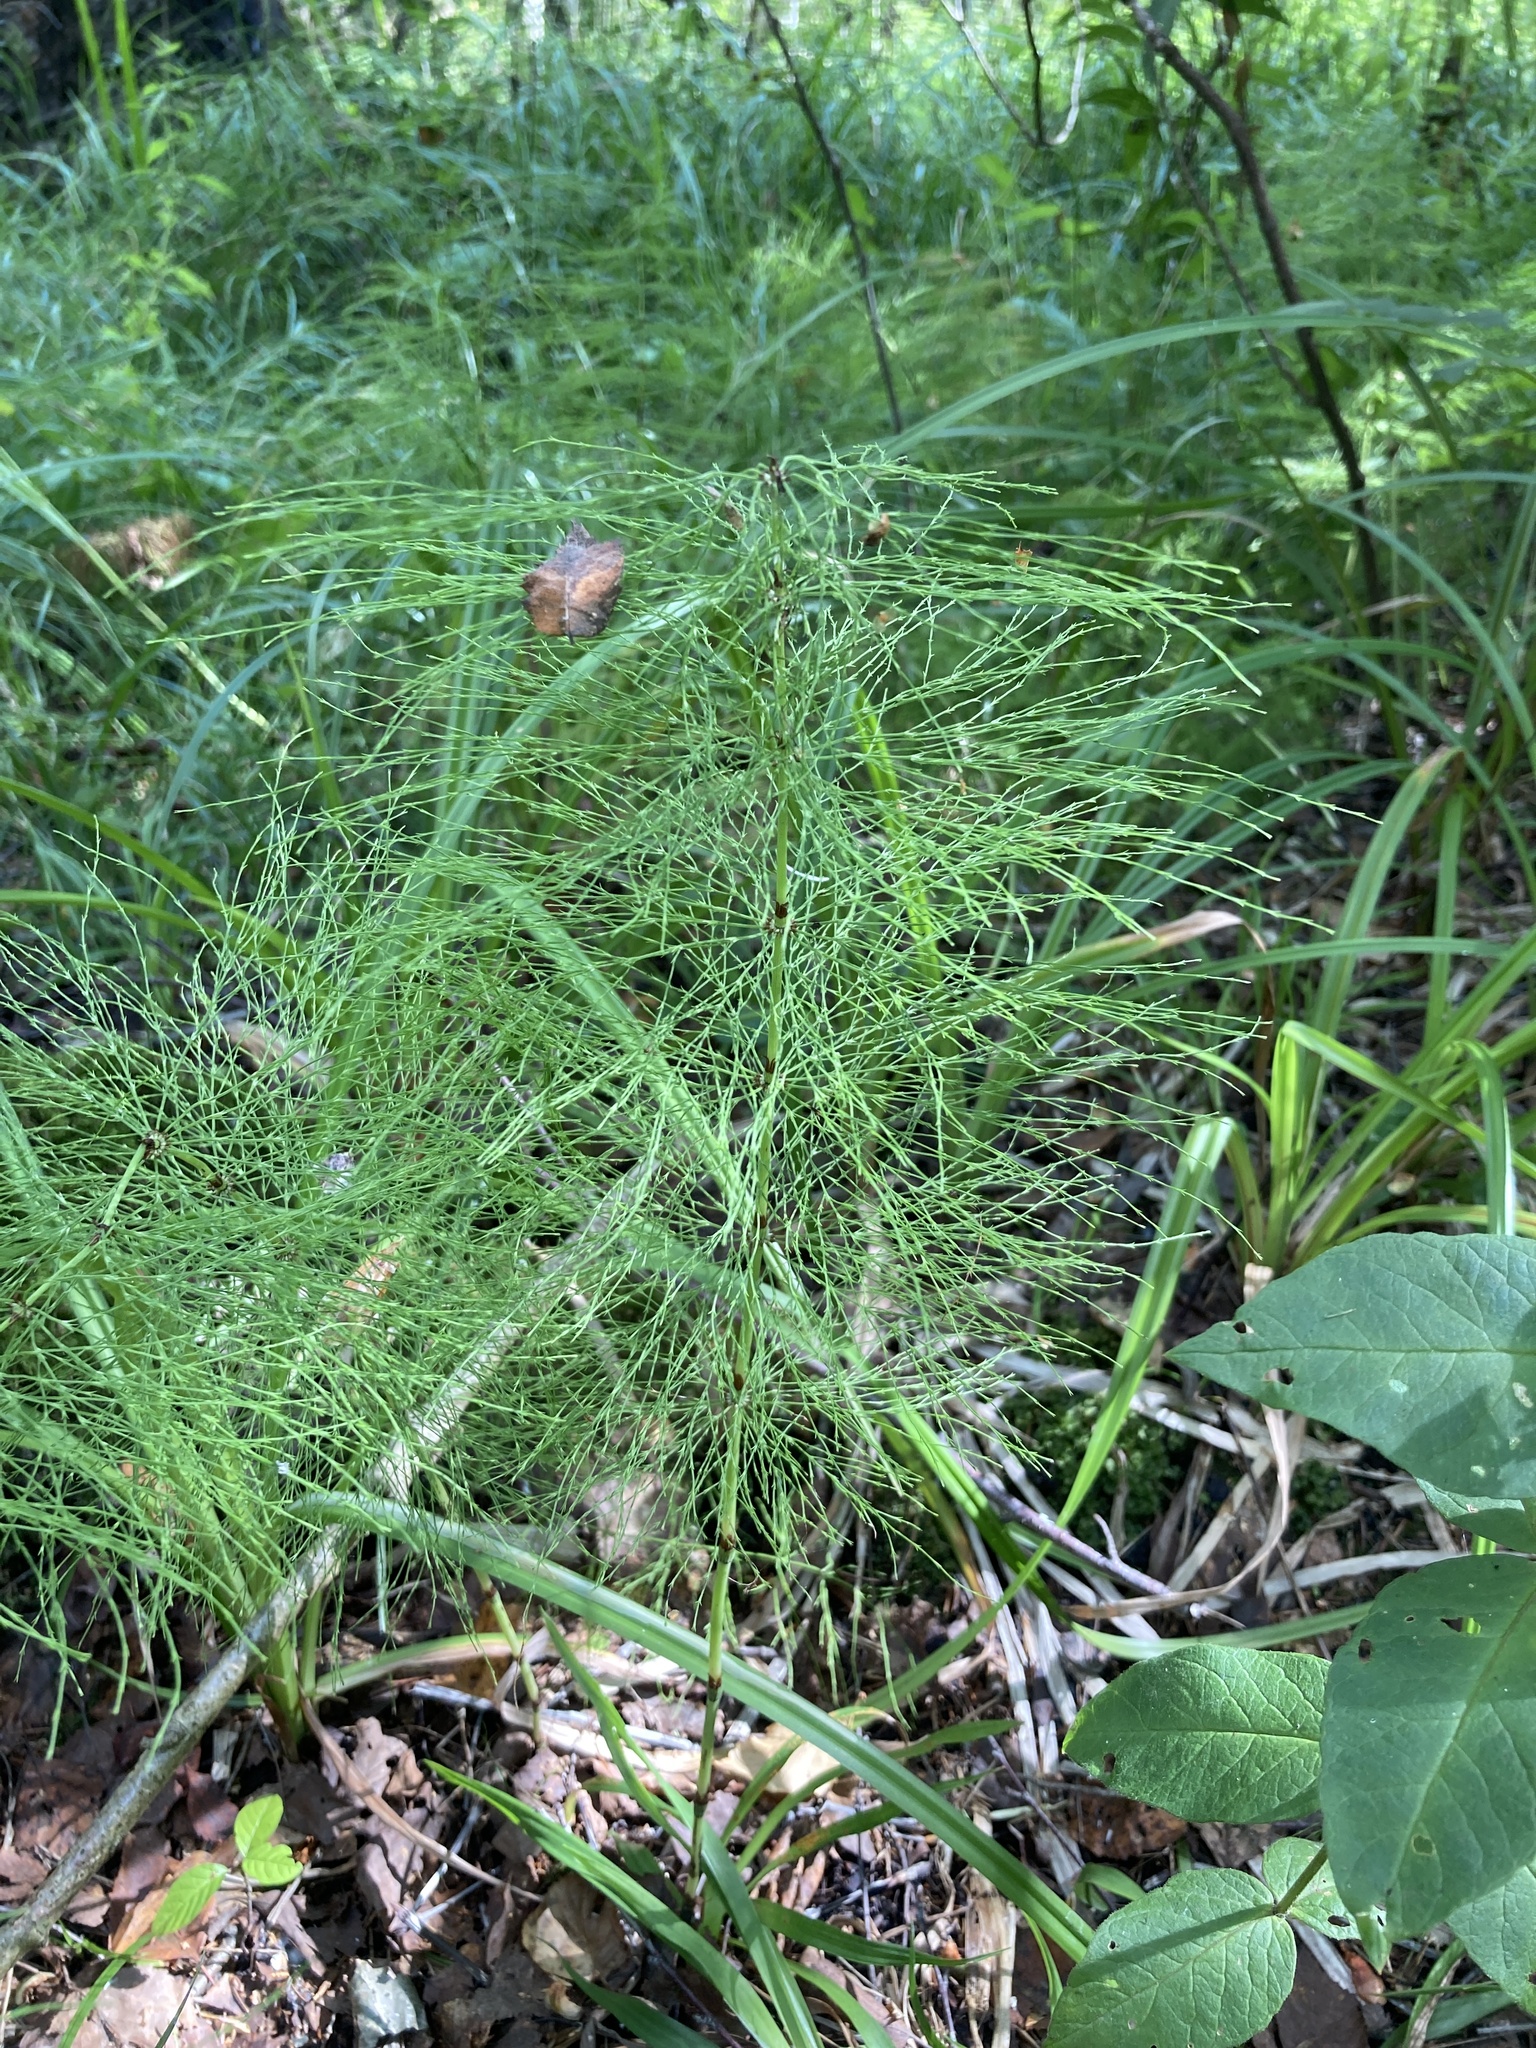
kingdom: Plantae
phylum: Tracheophyta
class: Polypodiopsida
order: Equisetales
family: Equisetaceae
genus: Equisetum
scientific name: Equisetum sylvaticum
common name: Wood horsetail
